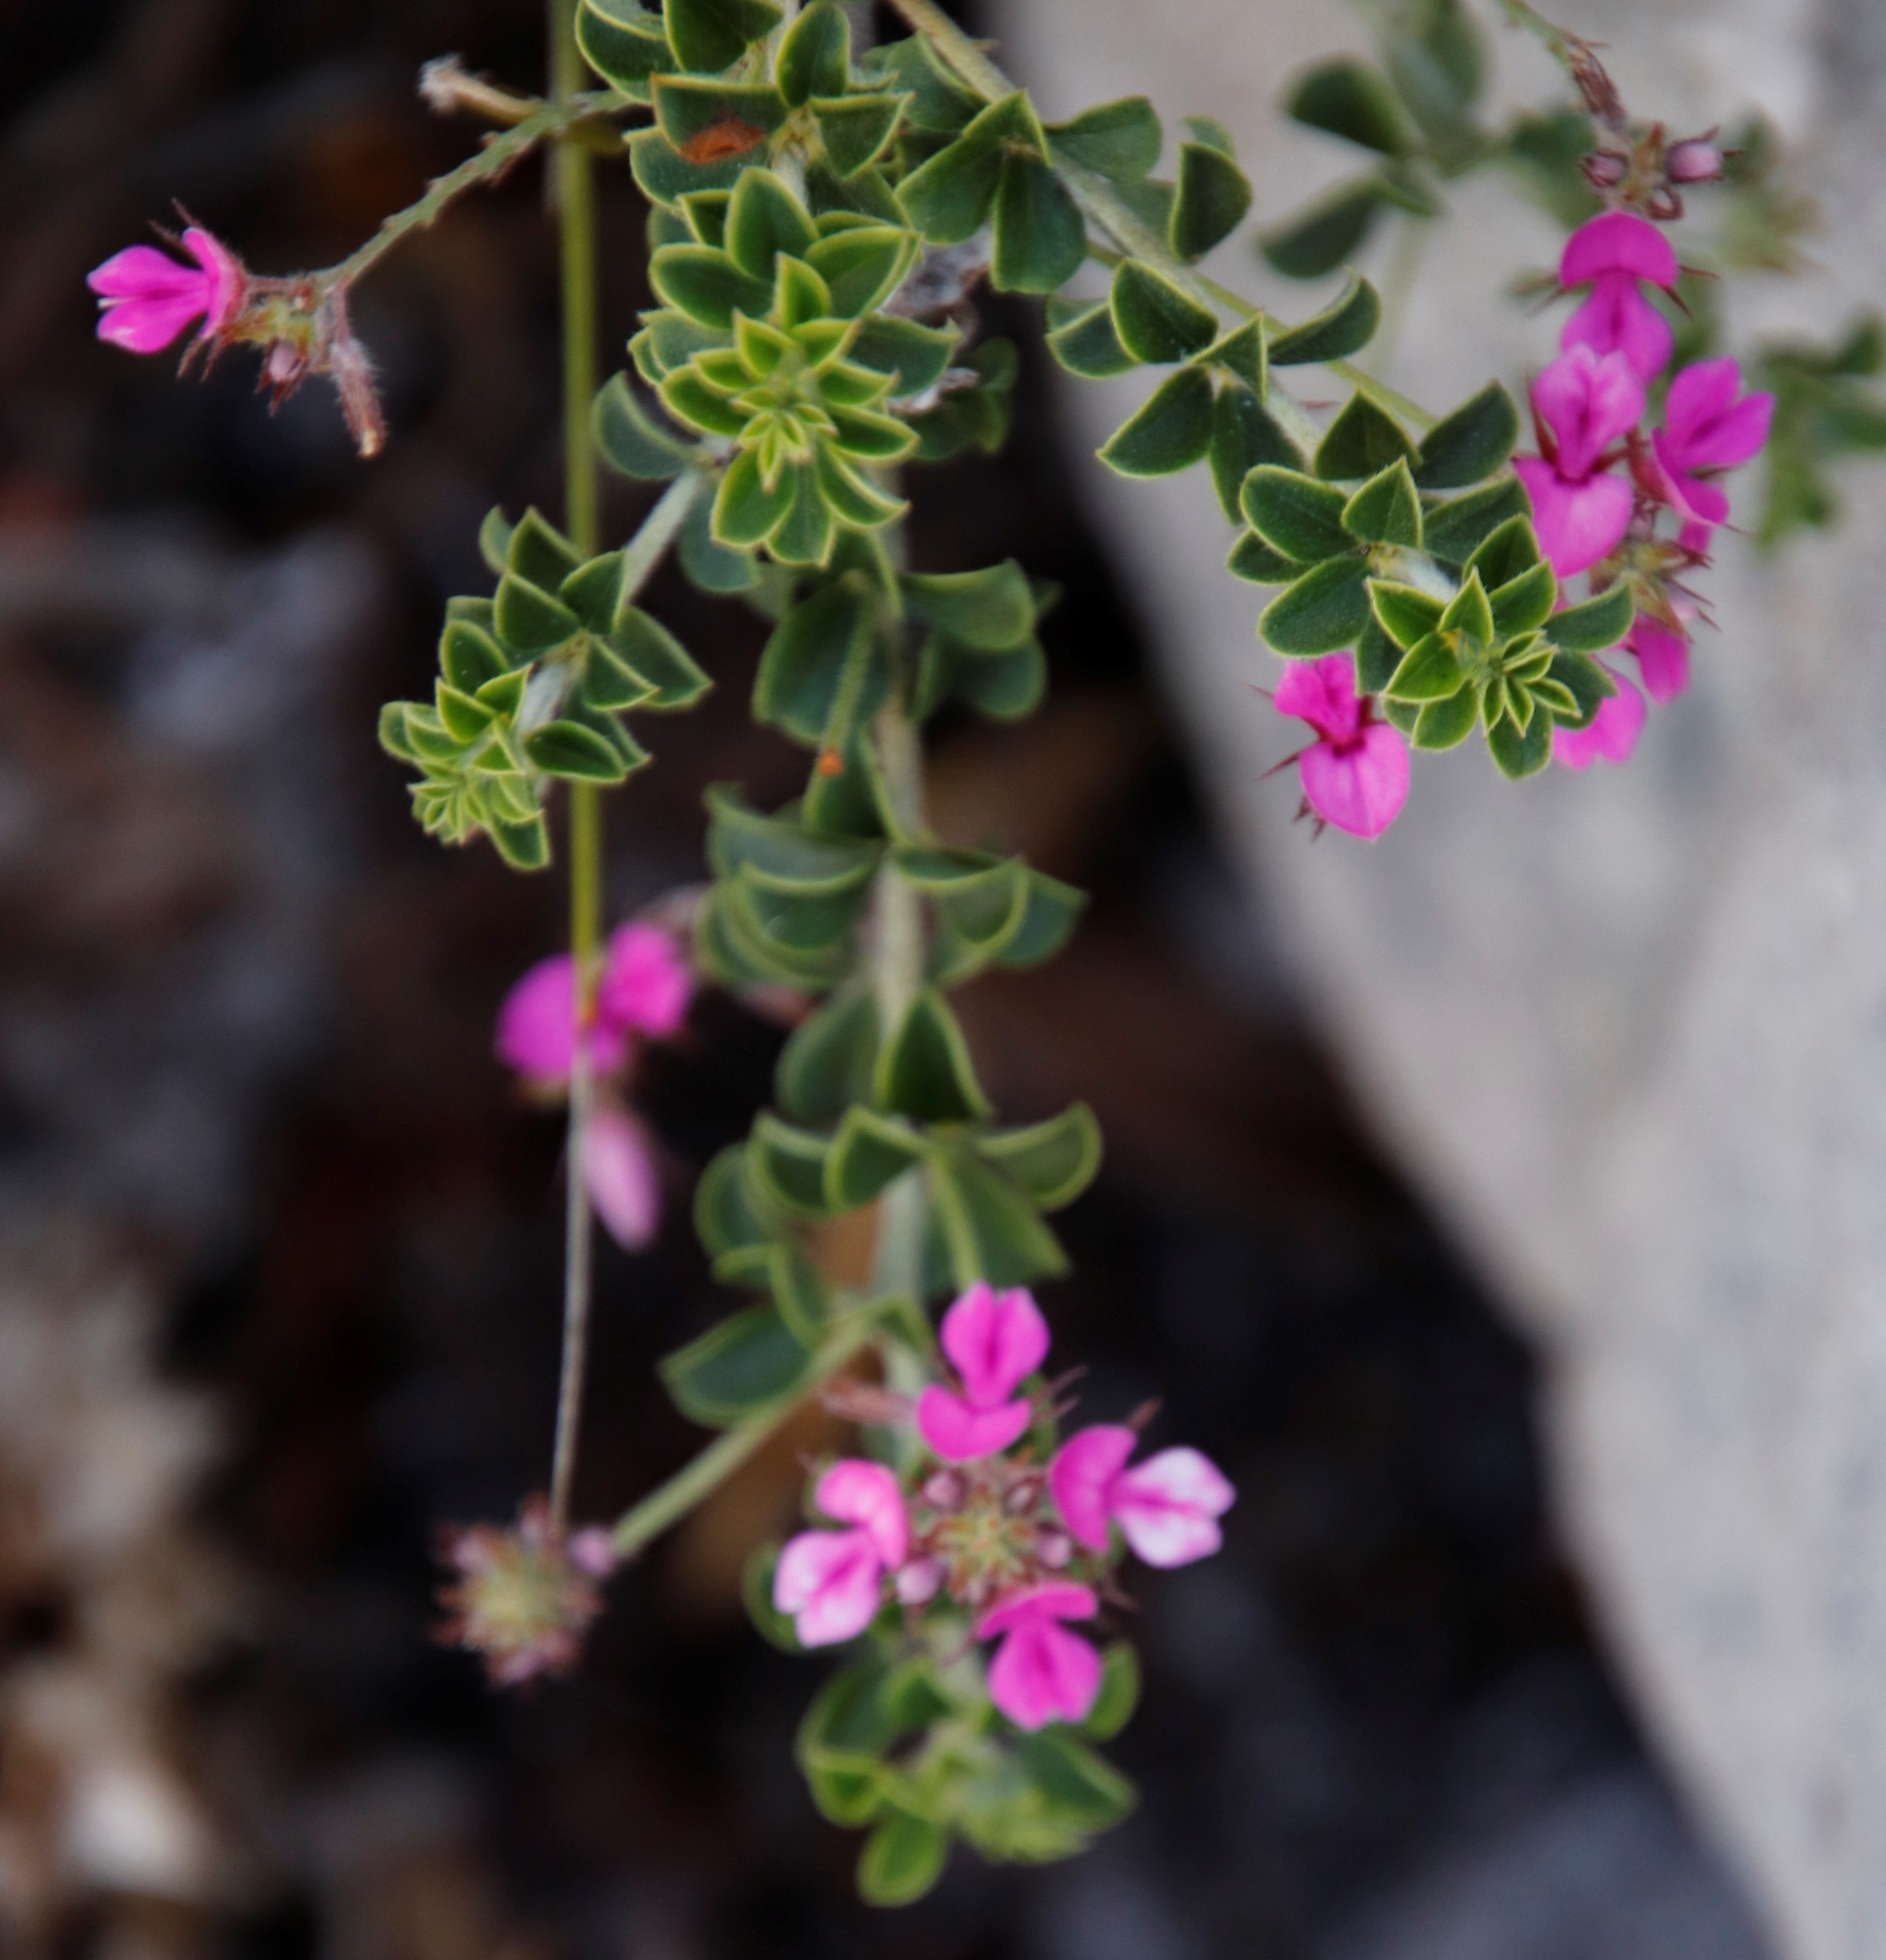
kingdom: Plantae
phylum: Tracheophyta
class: Magnoliopsida
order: Fabales
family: Fabaceae
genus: Indigofera
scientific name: Indigofera candolleana
